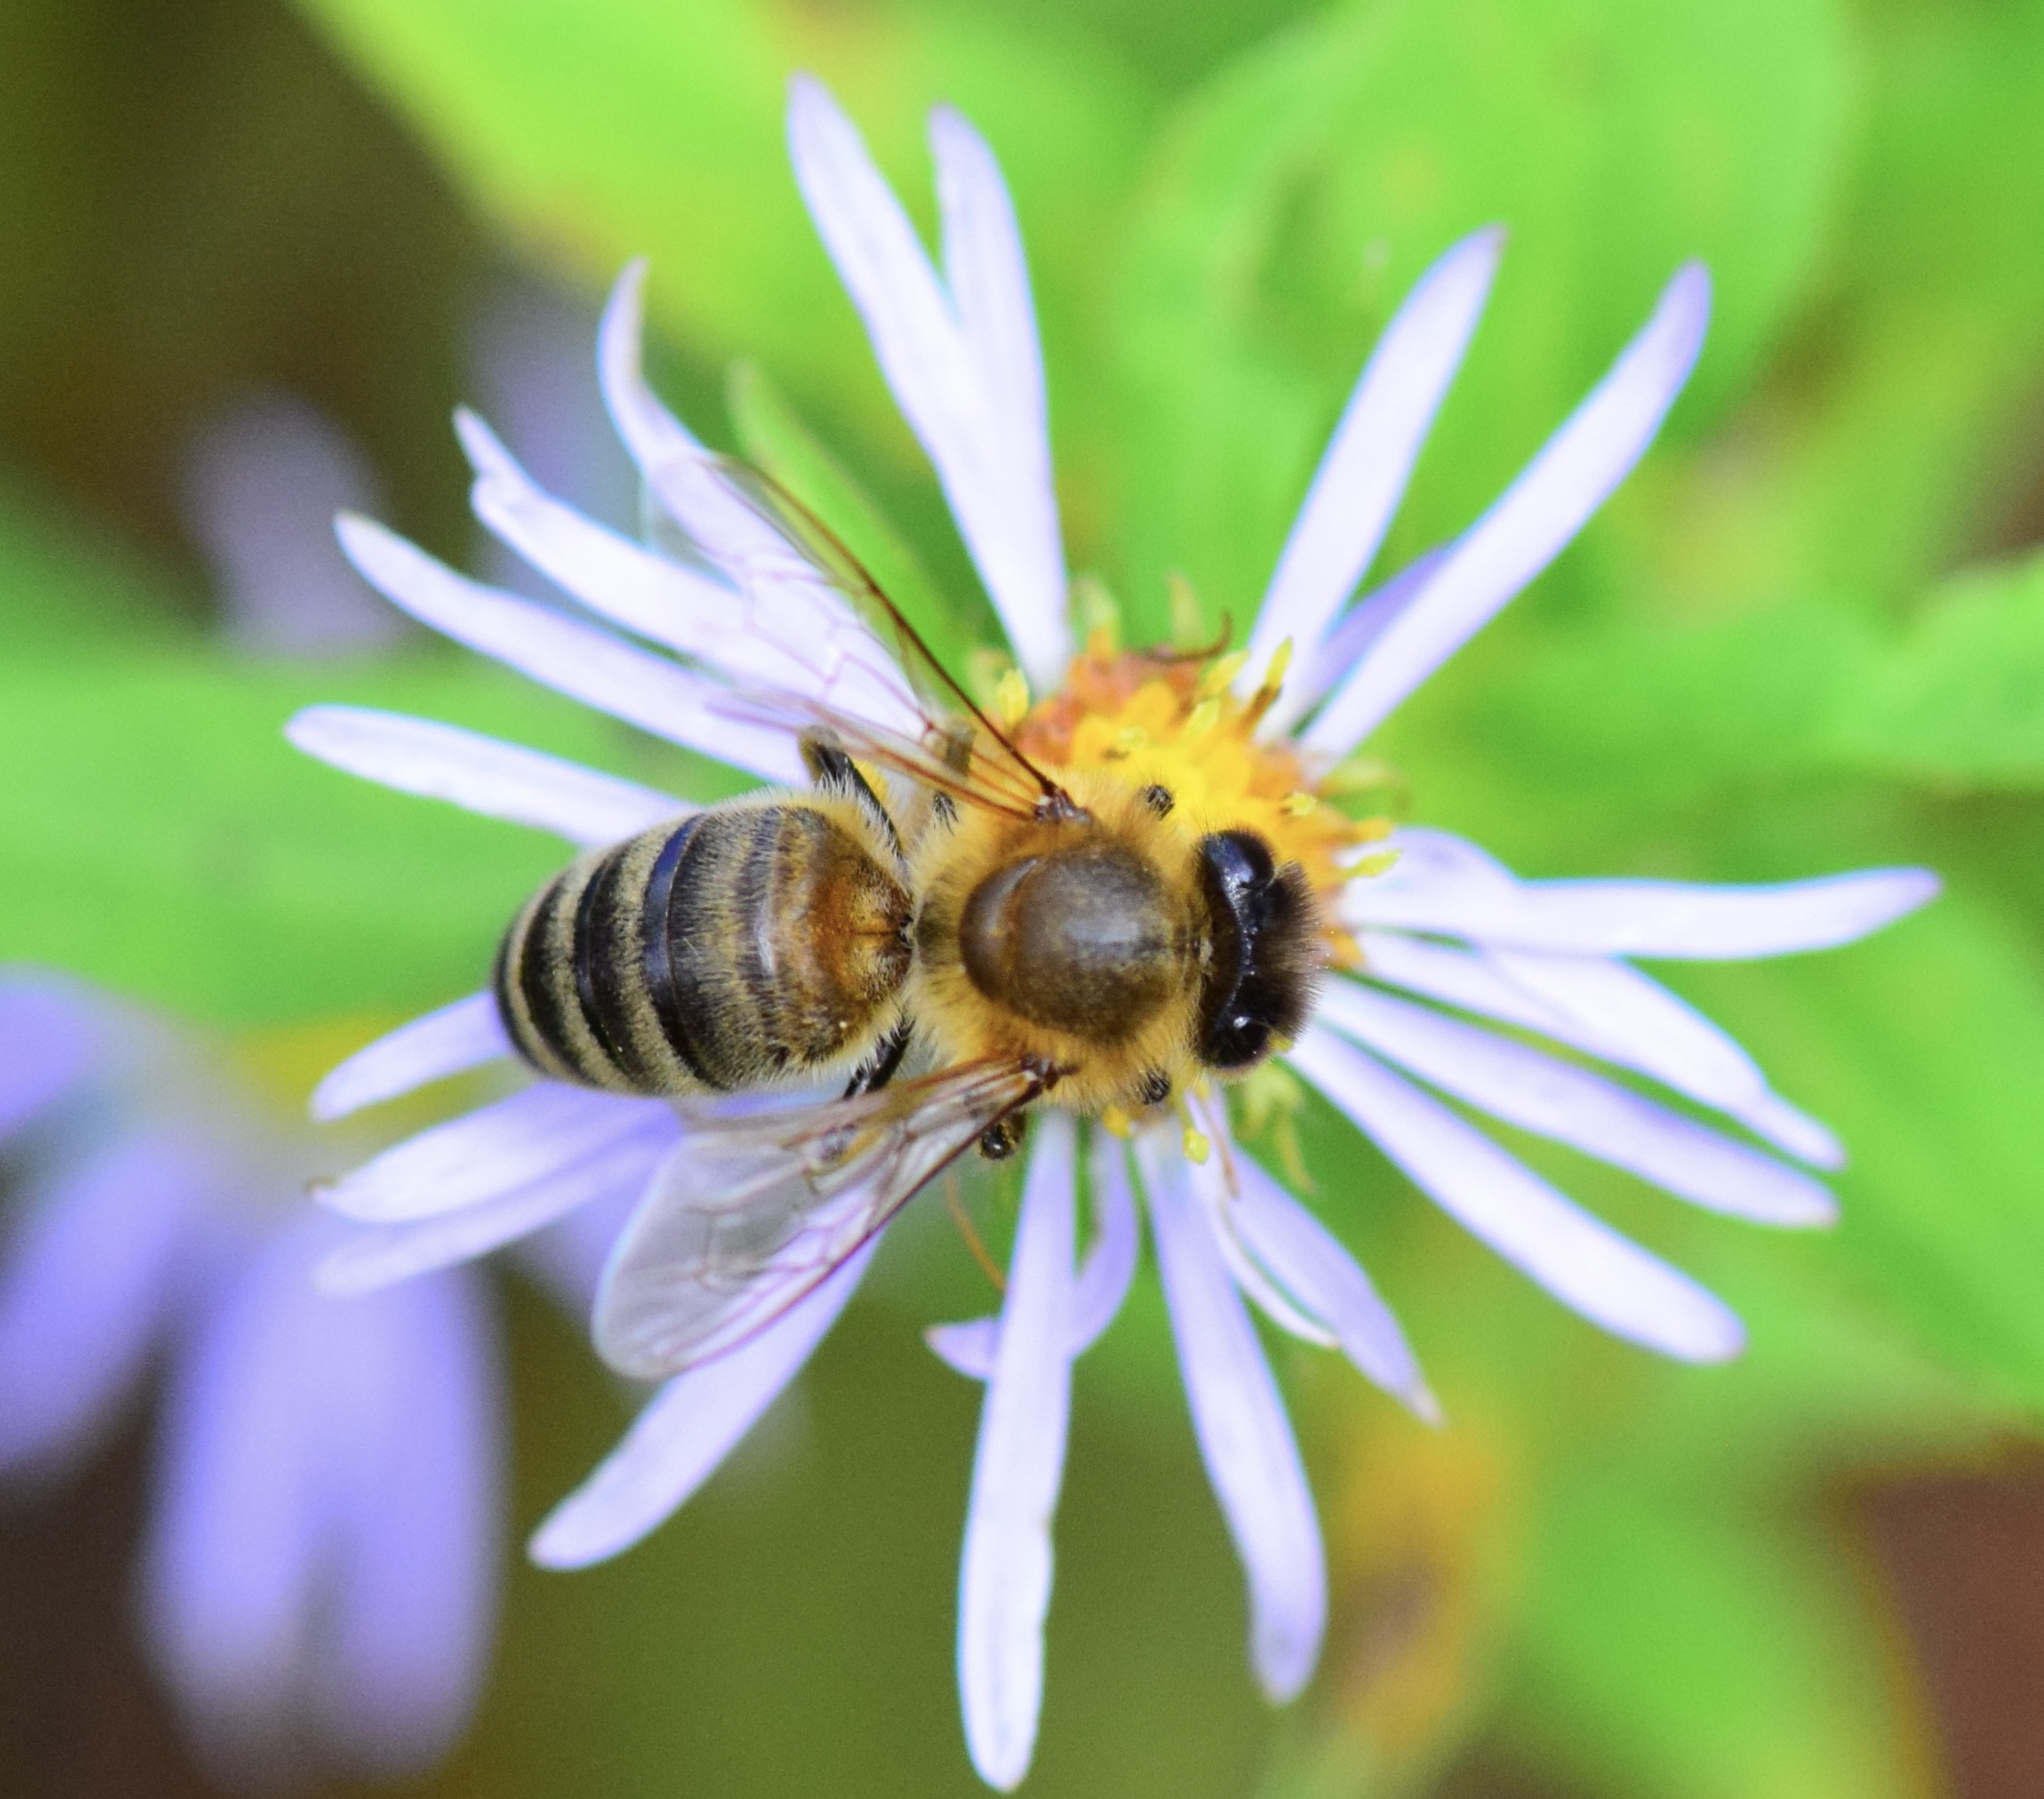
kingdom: Animalia
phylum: Arthropoda
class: Insecta
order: Hymenoptera
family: Apidae
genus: Apis
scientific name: Apis mellifera
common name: Honey bee
